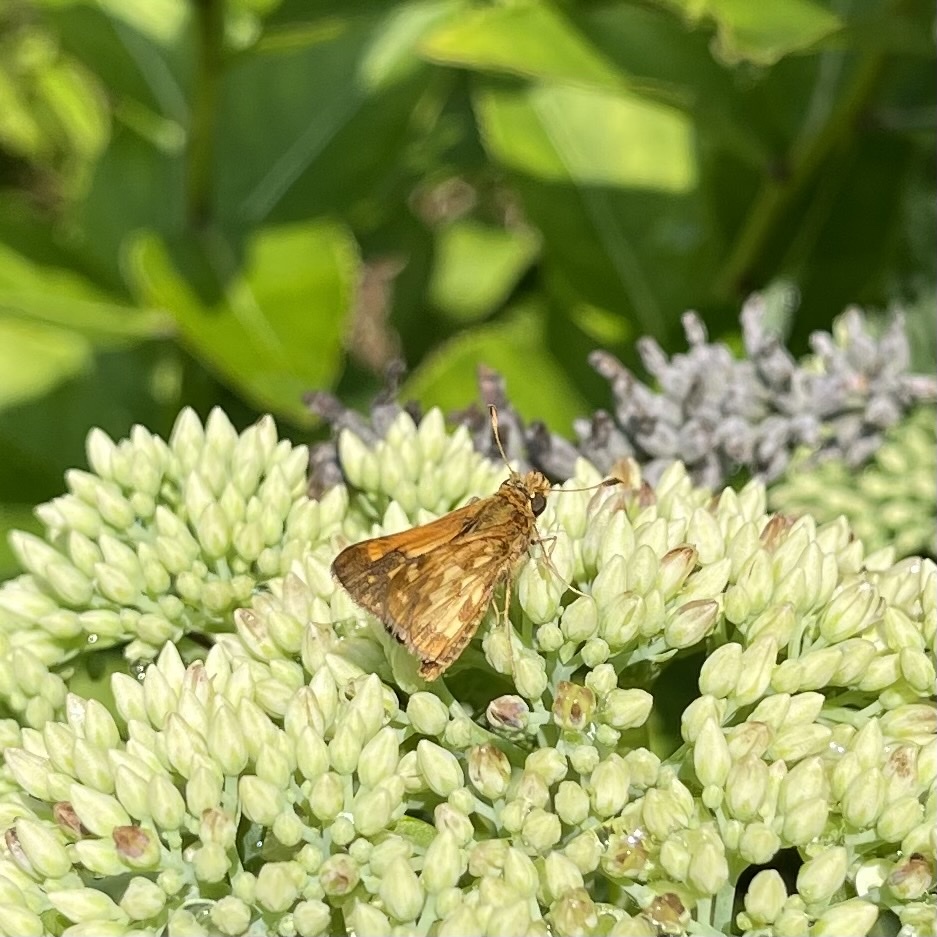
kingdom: Animalia
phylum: Arthropoda
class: Insecta
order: Lepidoptera
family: Hesperiidae
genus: Polites
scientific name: Polites coras
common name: Peck's skipper
